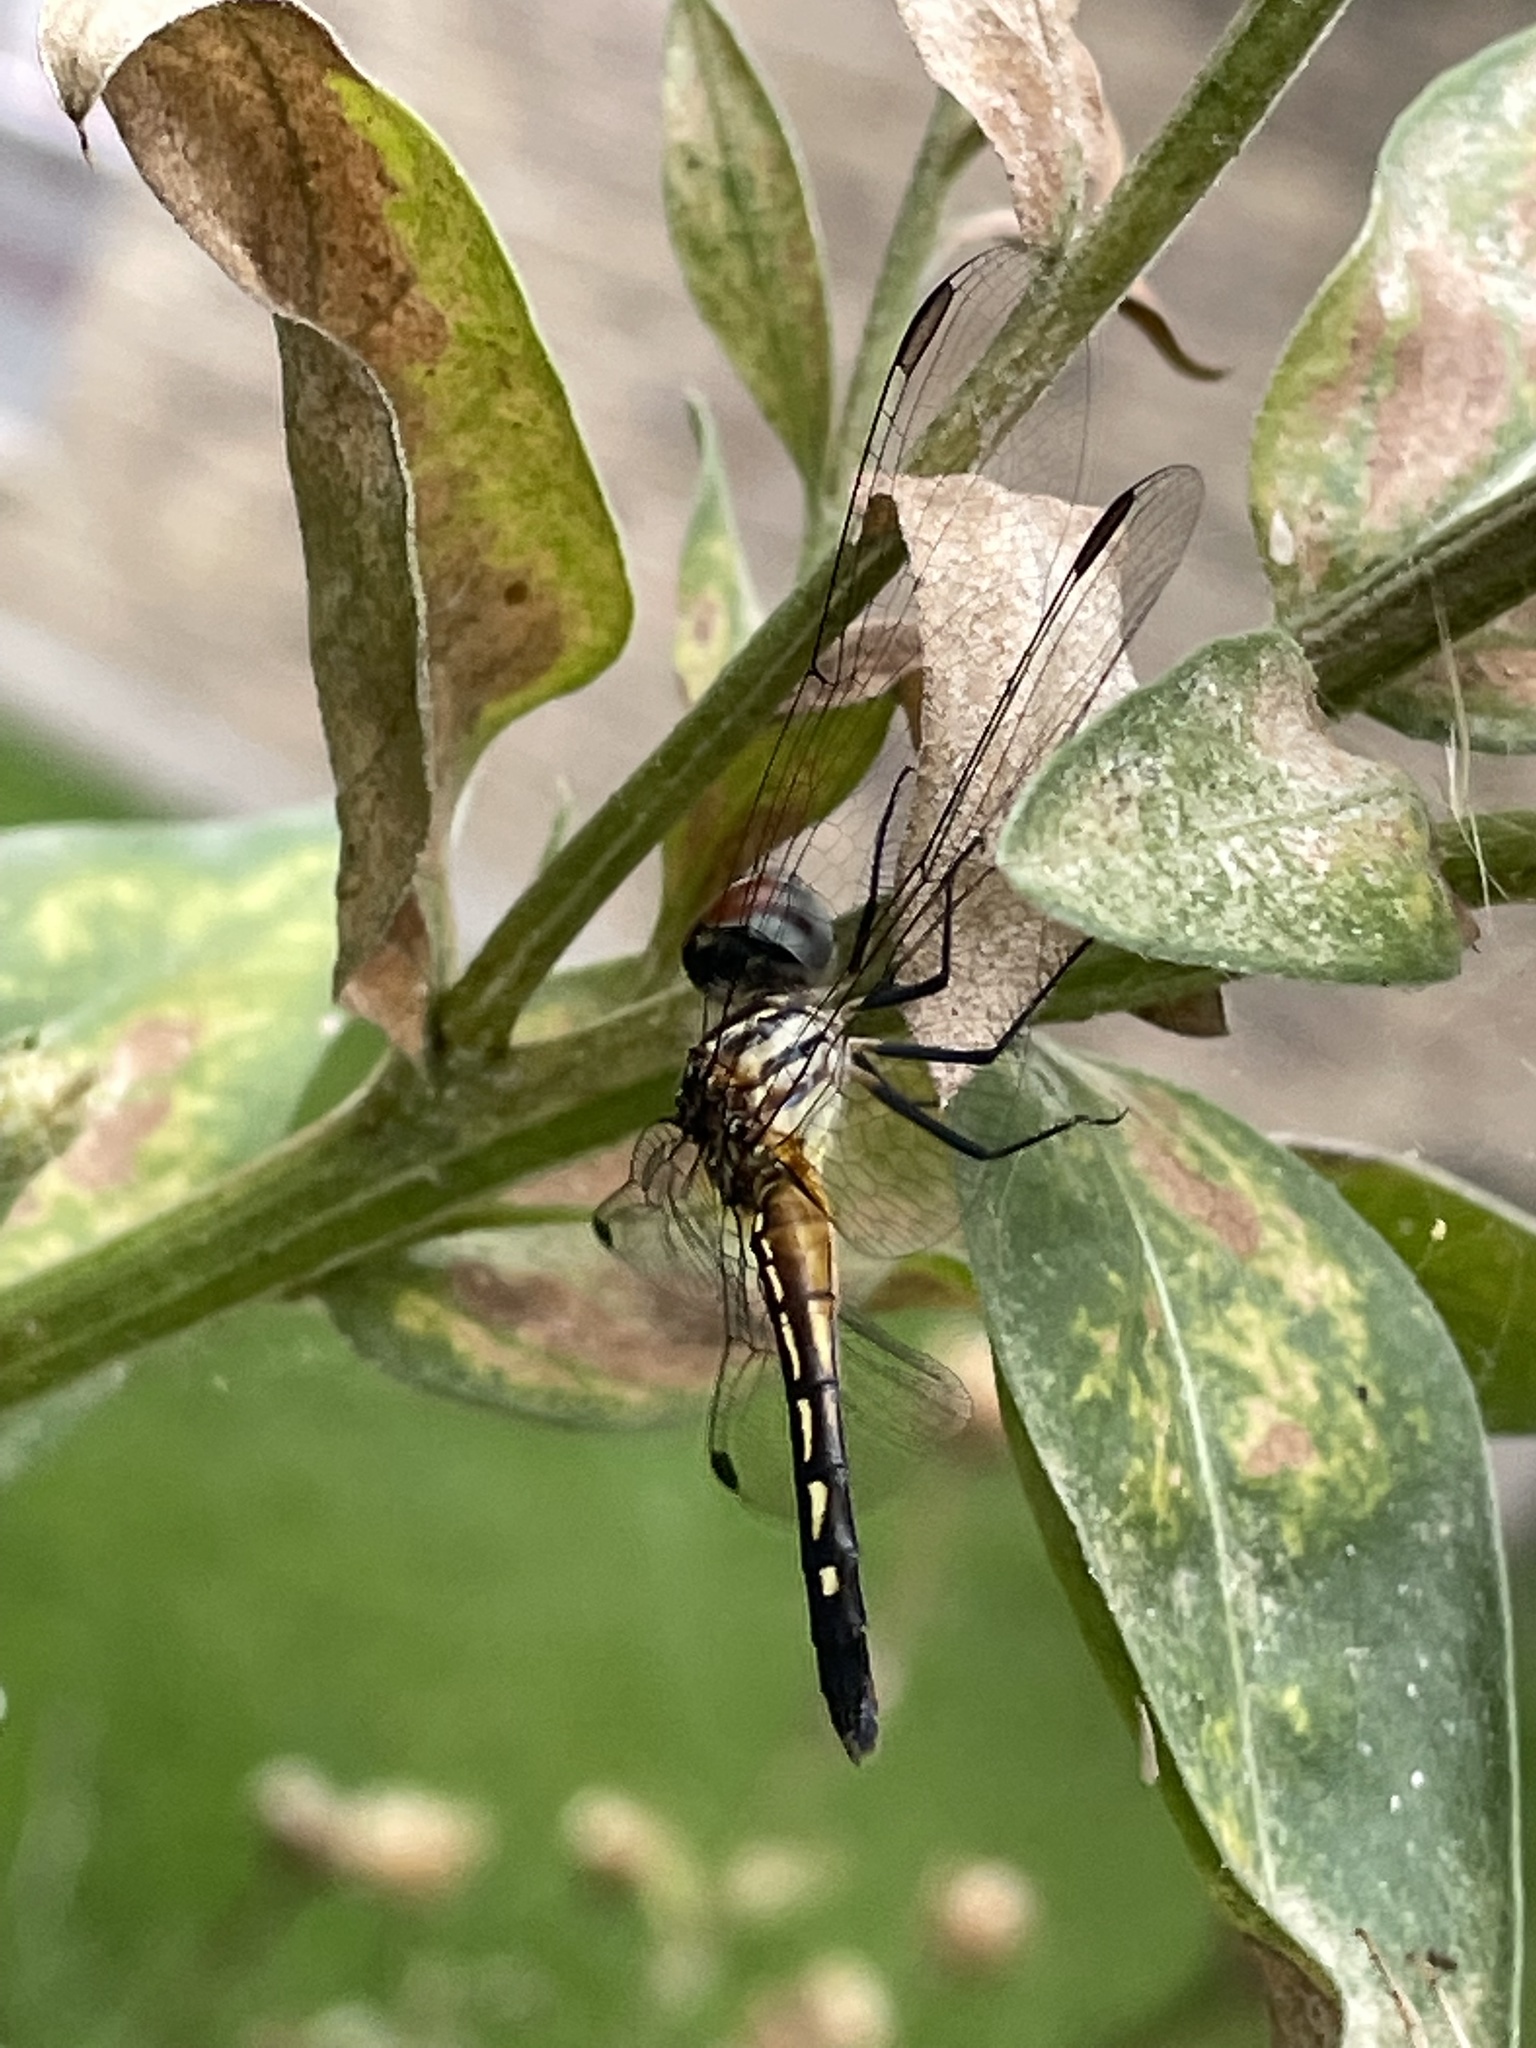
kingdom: Animalia
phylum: Arthropoda
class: Insecta
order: Odonata
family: Libellulidae
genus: Pachydiplax
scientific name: Pachydiplax longipennis
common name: Blue dasher
